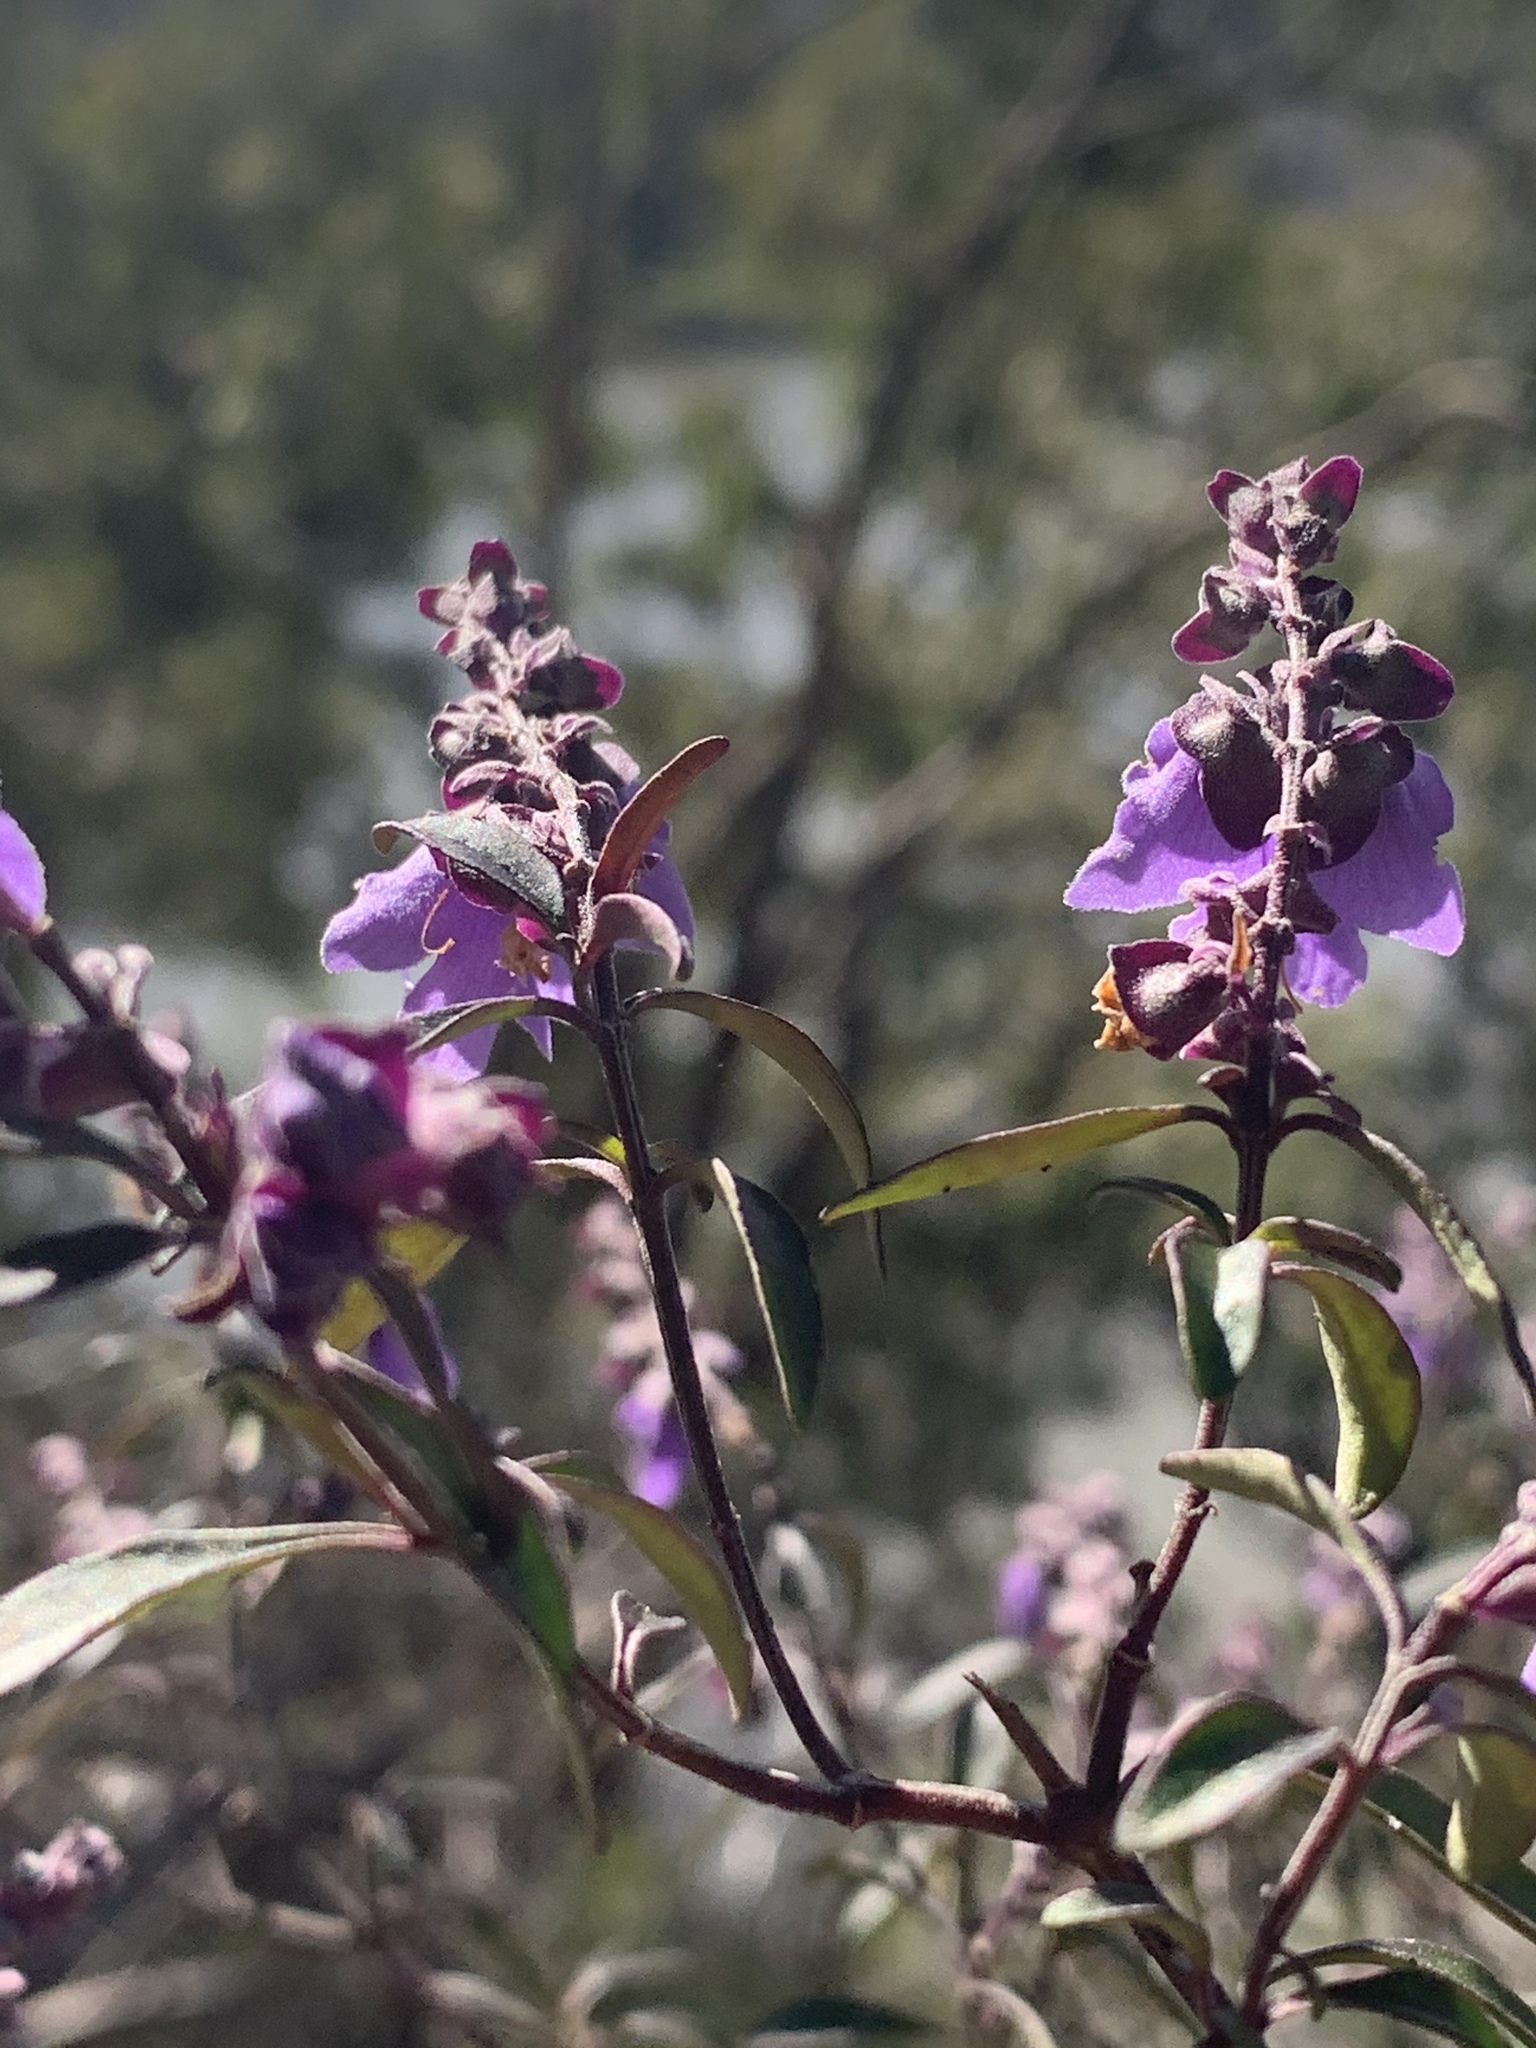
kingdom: Plantae
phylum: Tracheophyta
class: Magnoliopsida
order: Lamiales
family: Lamiaceae
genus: Prostanthera
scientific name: Prostanthera ovalifolia
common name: Purple mintbush
